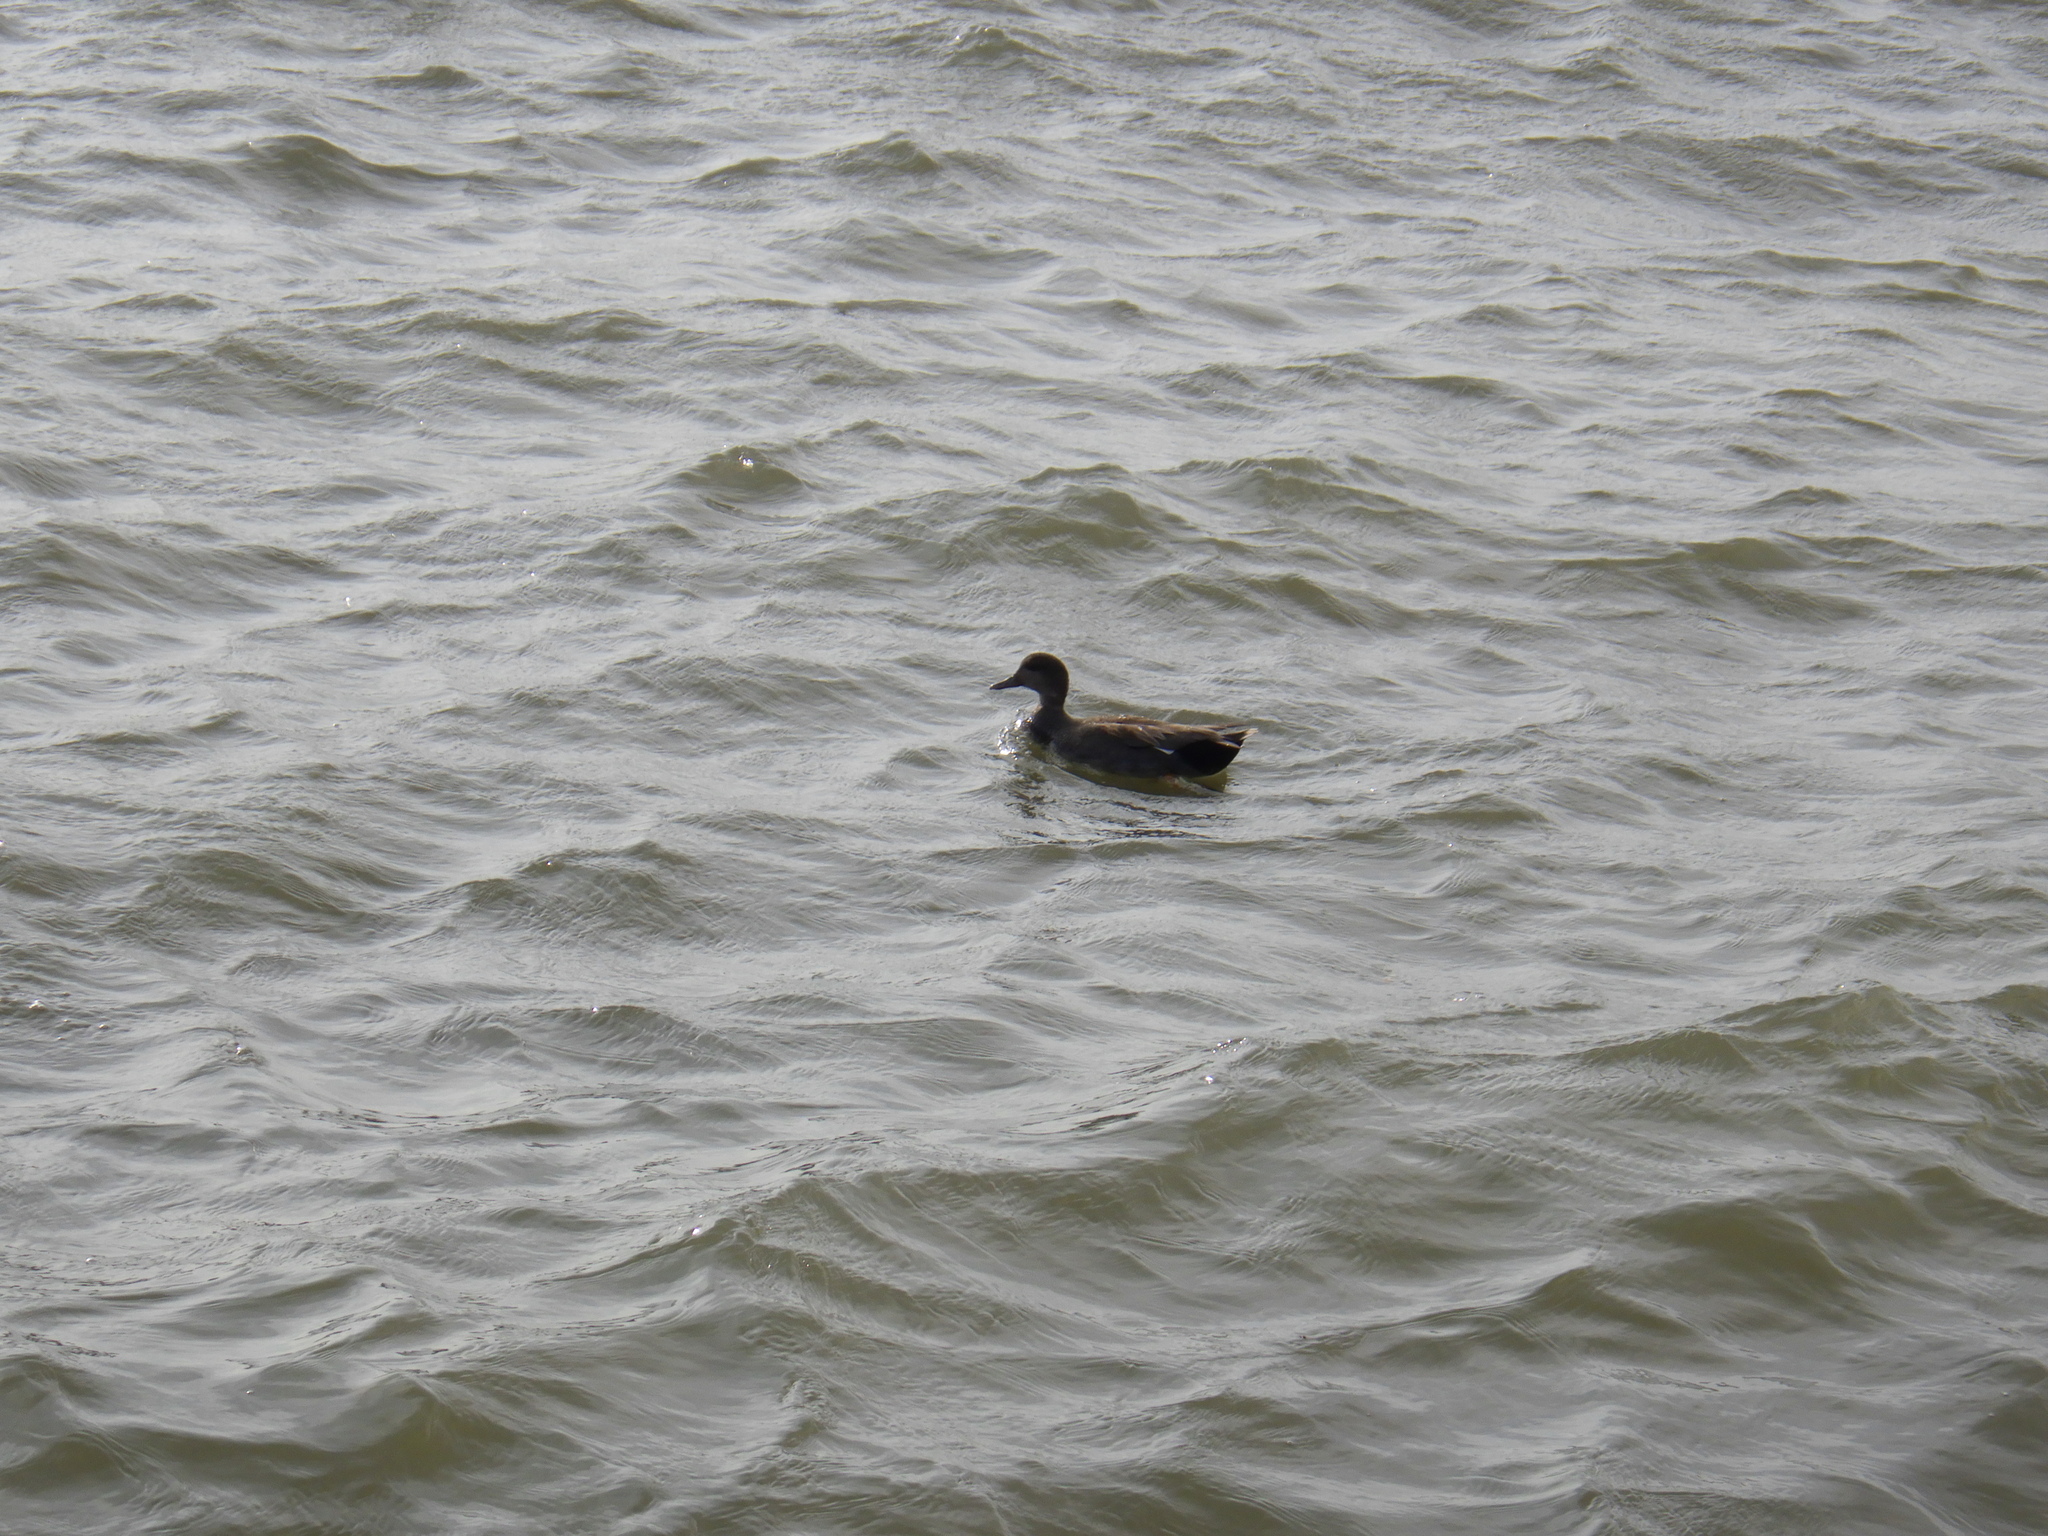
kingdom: Animalia
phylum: Chordata
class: Aves
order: Anseriformes
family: Anatidae
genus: Mareca
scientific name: Mareca strepera
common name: Gadwall
